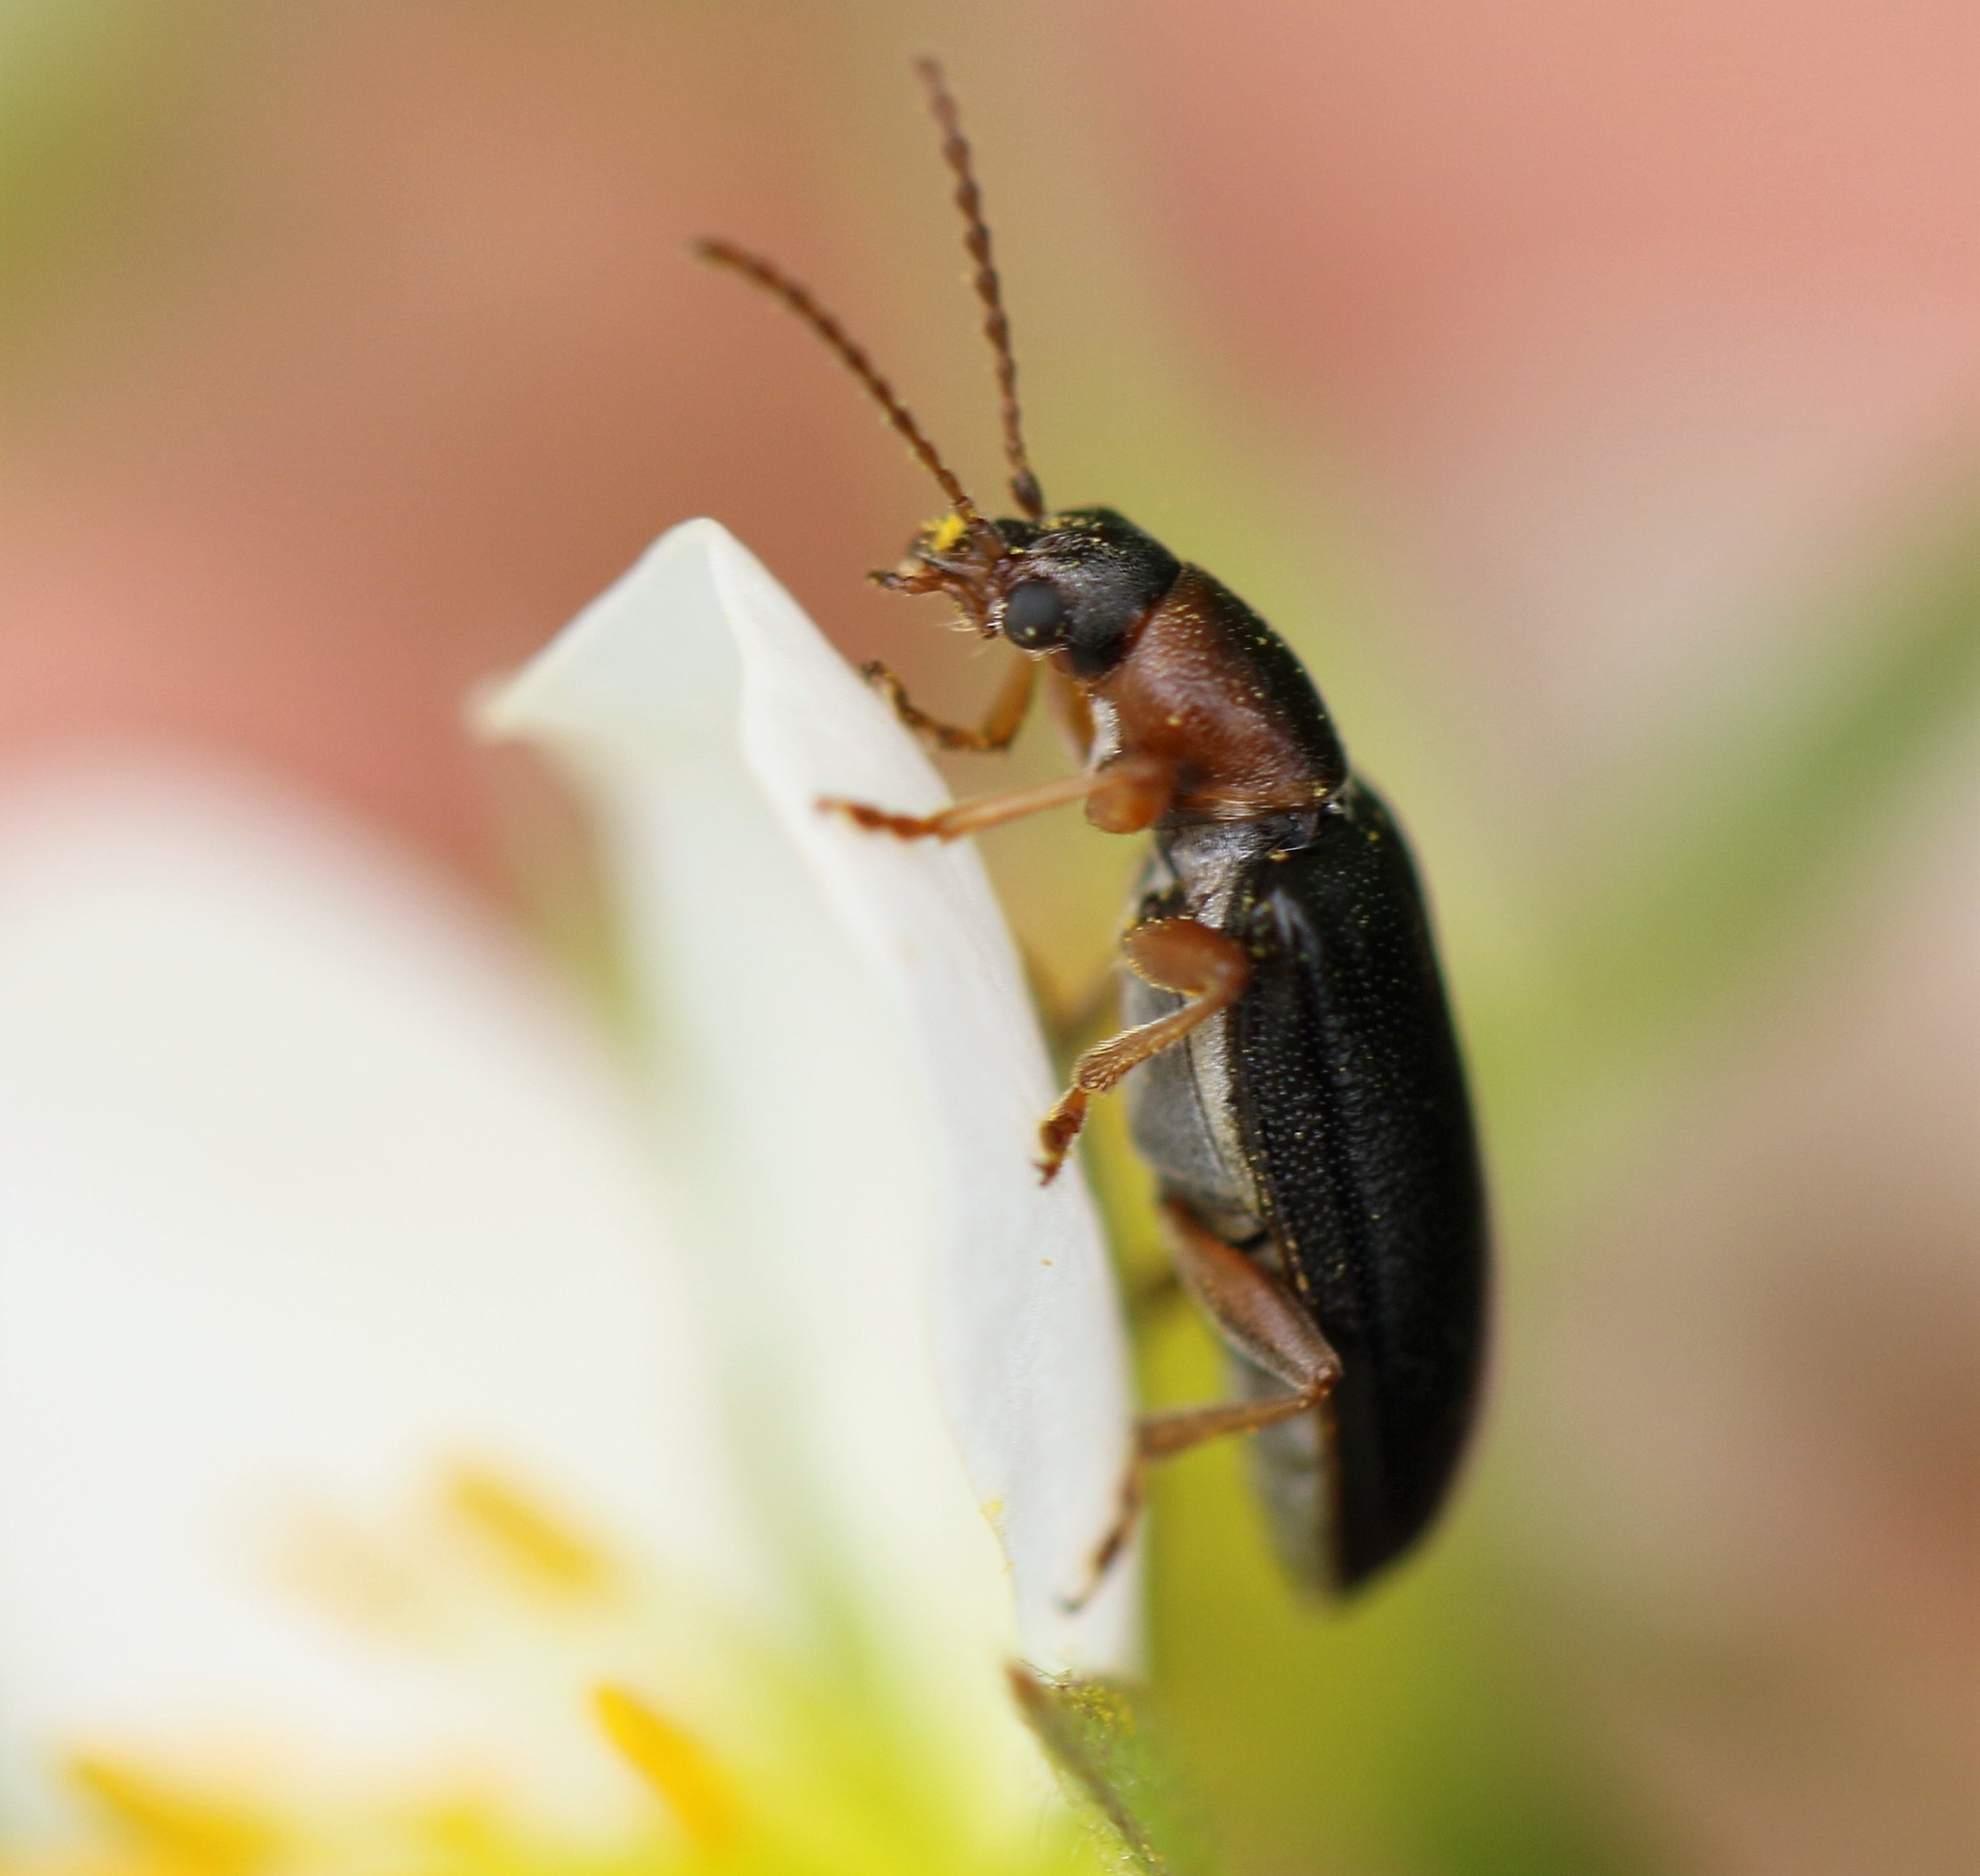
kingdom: Animalia
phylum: Arthropoda
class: Insecta
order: Coleoptera
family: Orsodacnidae
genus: Orsodacne
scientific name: Orsodacne atra
